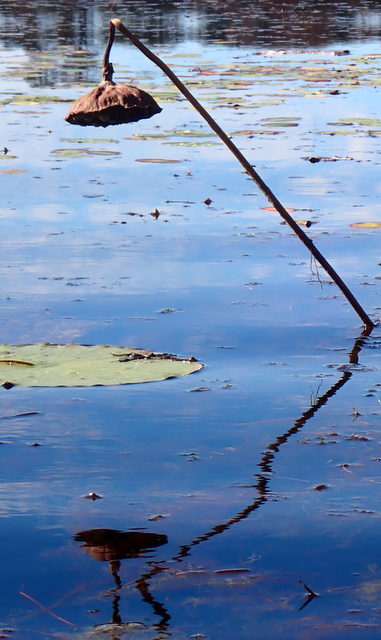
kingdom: Plantae
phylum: Tracheophyta
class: Magnoliopsida
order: Proteales
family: Nelumbonaceae
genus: Nelumbo
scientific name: Nelumbo lutea
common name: American lotus
